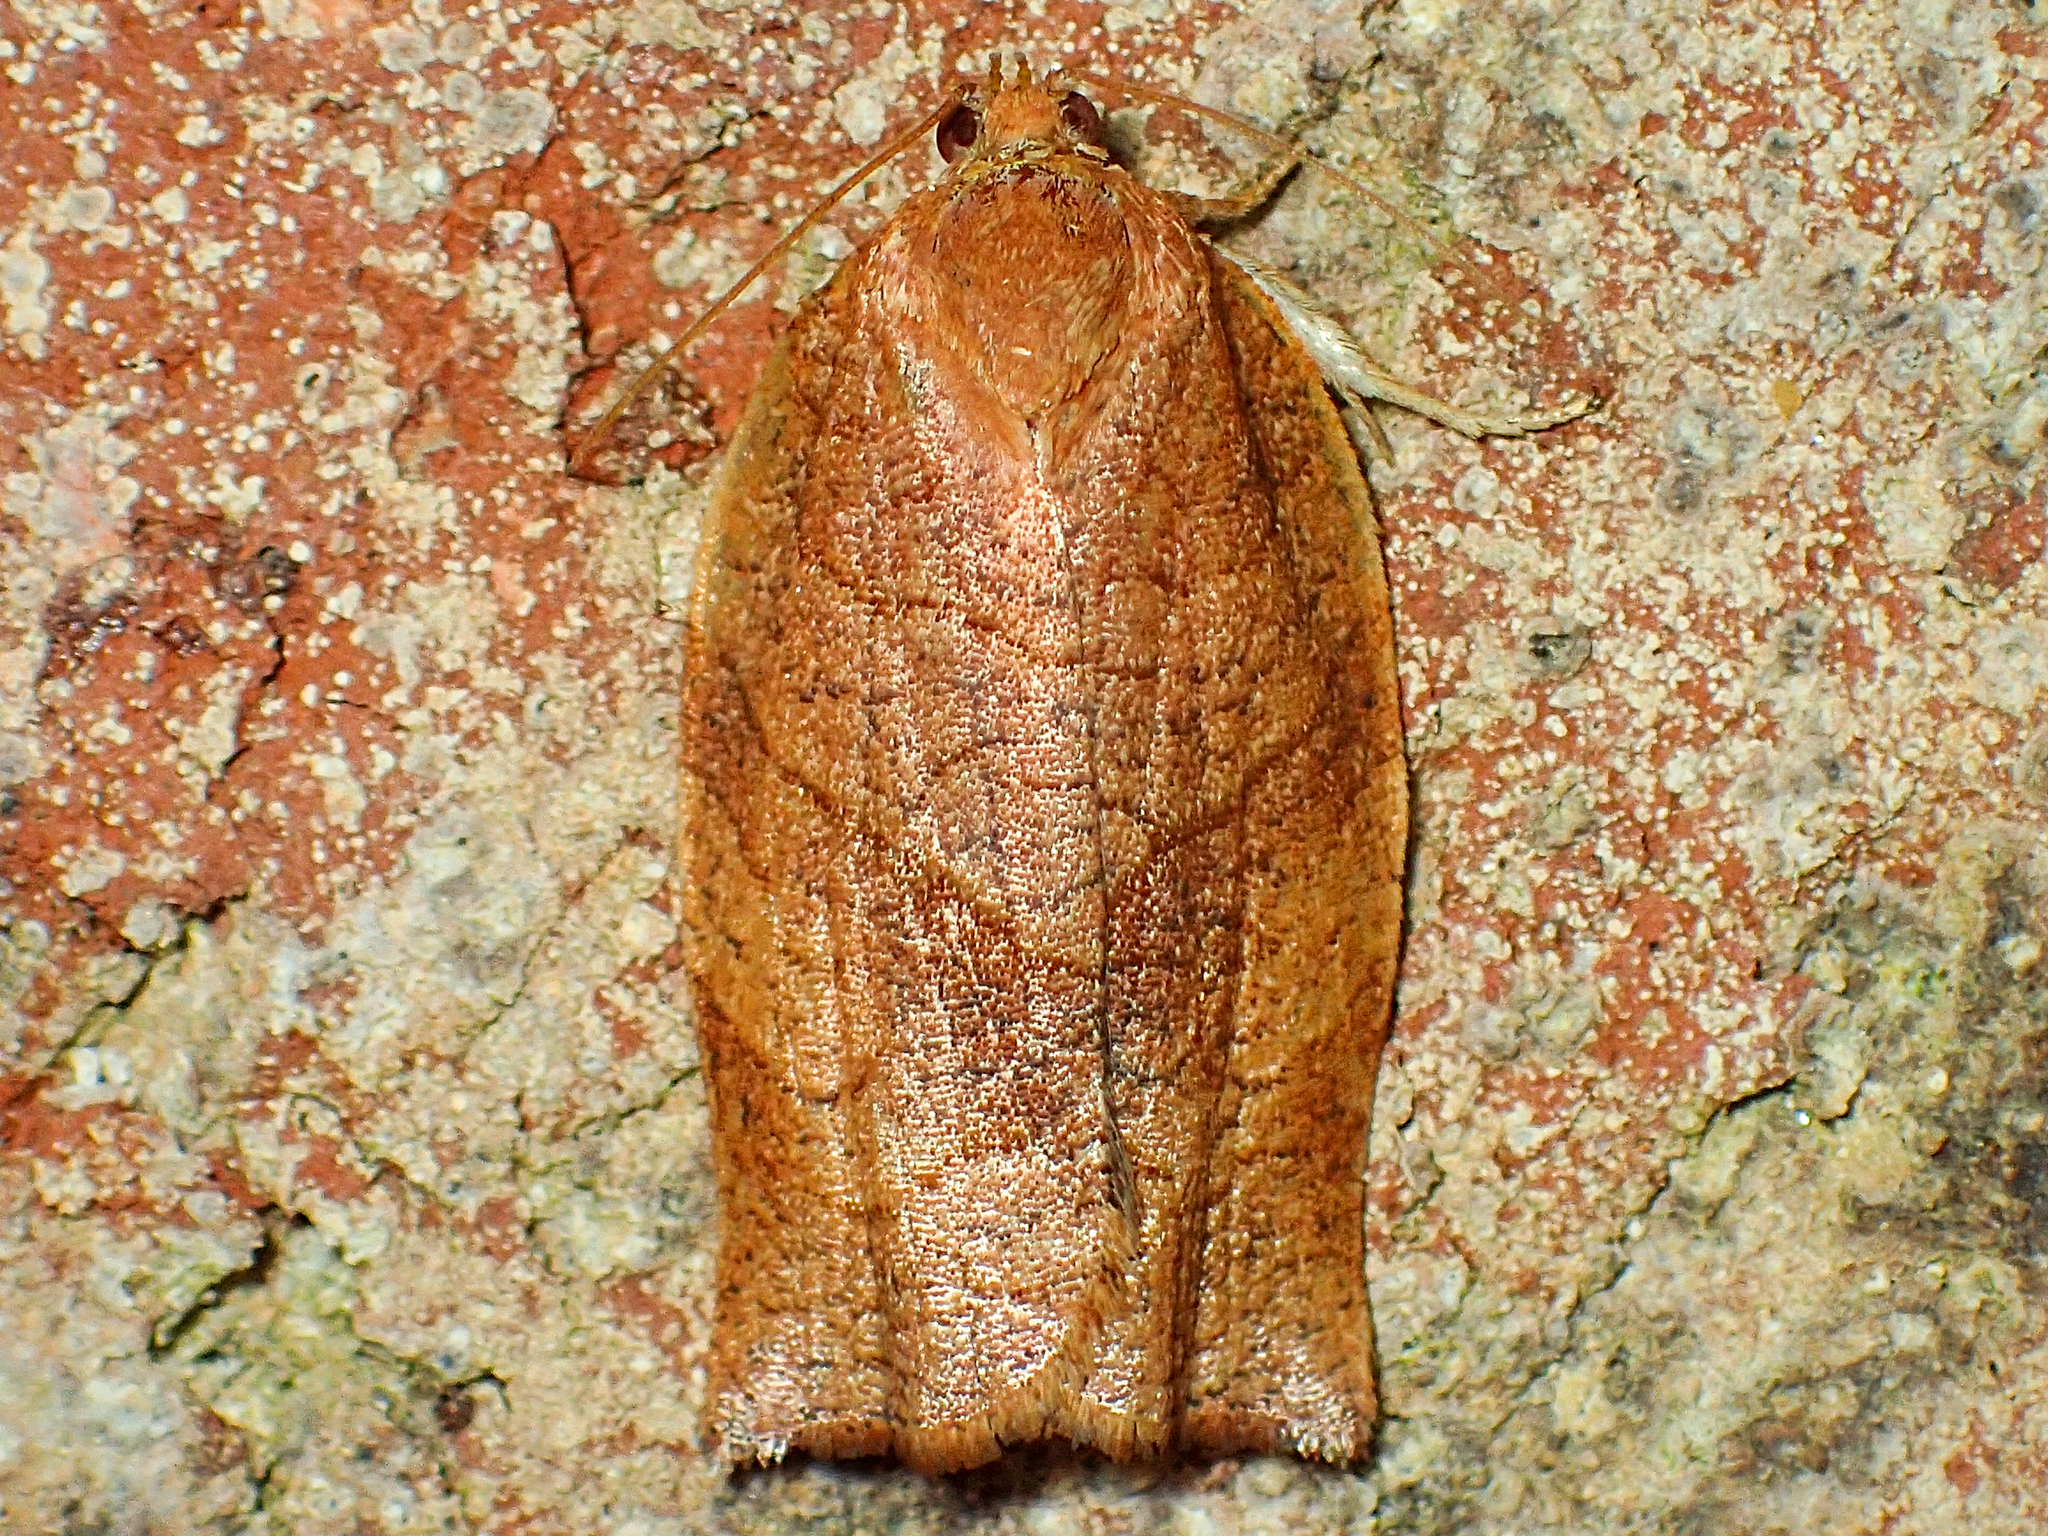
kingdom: Animalia
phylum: Arthropoda
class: Insecta
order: Lepidoptera
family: Tortricidae
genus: Choristoneura
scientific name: Choristoneura rosaceana
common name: Oblique-banded leafroller moth
